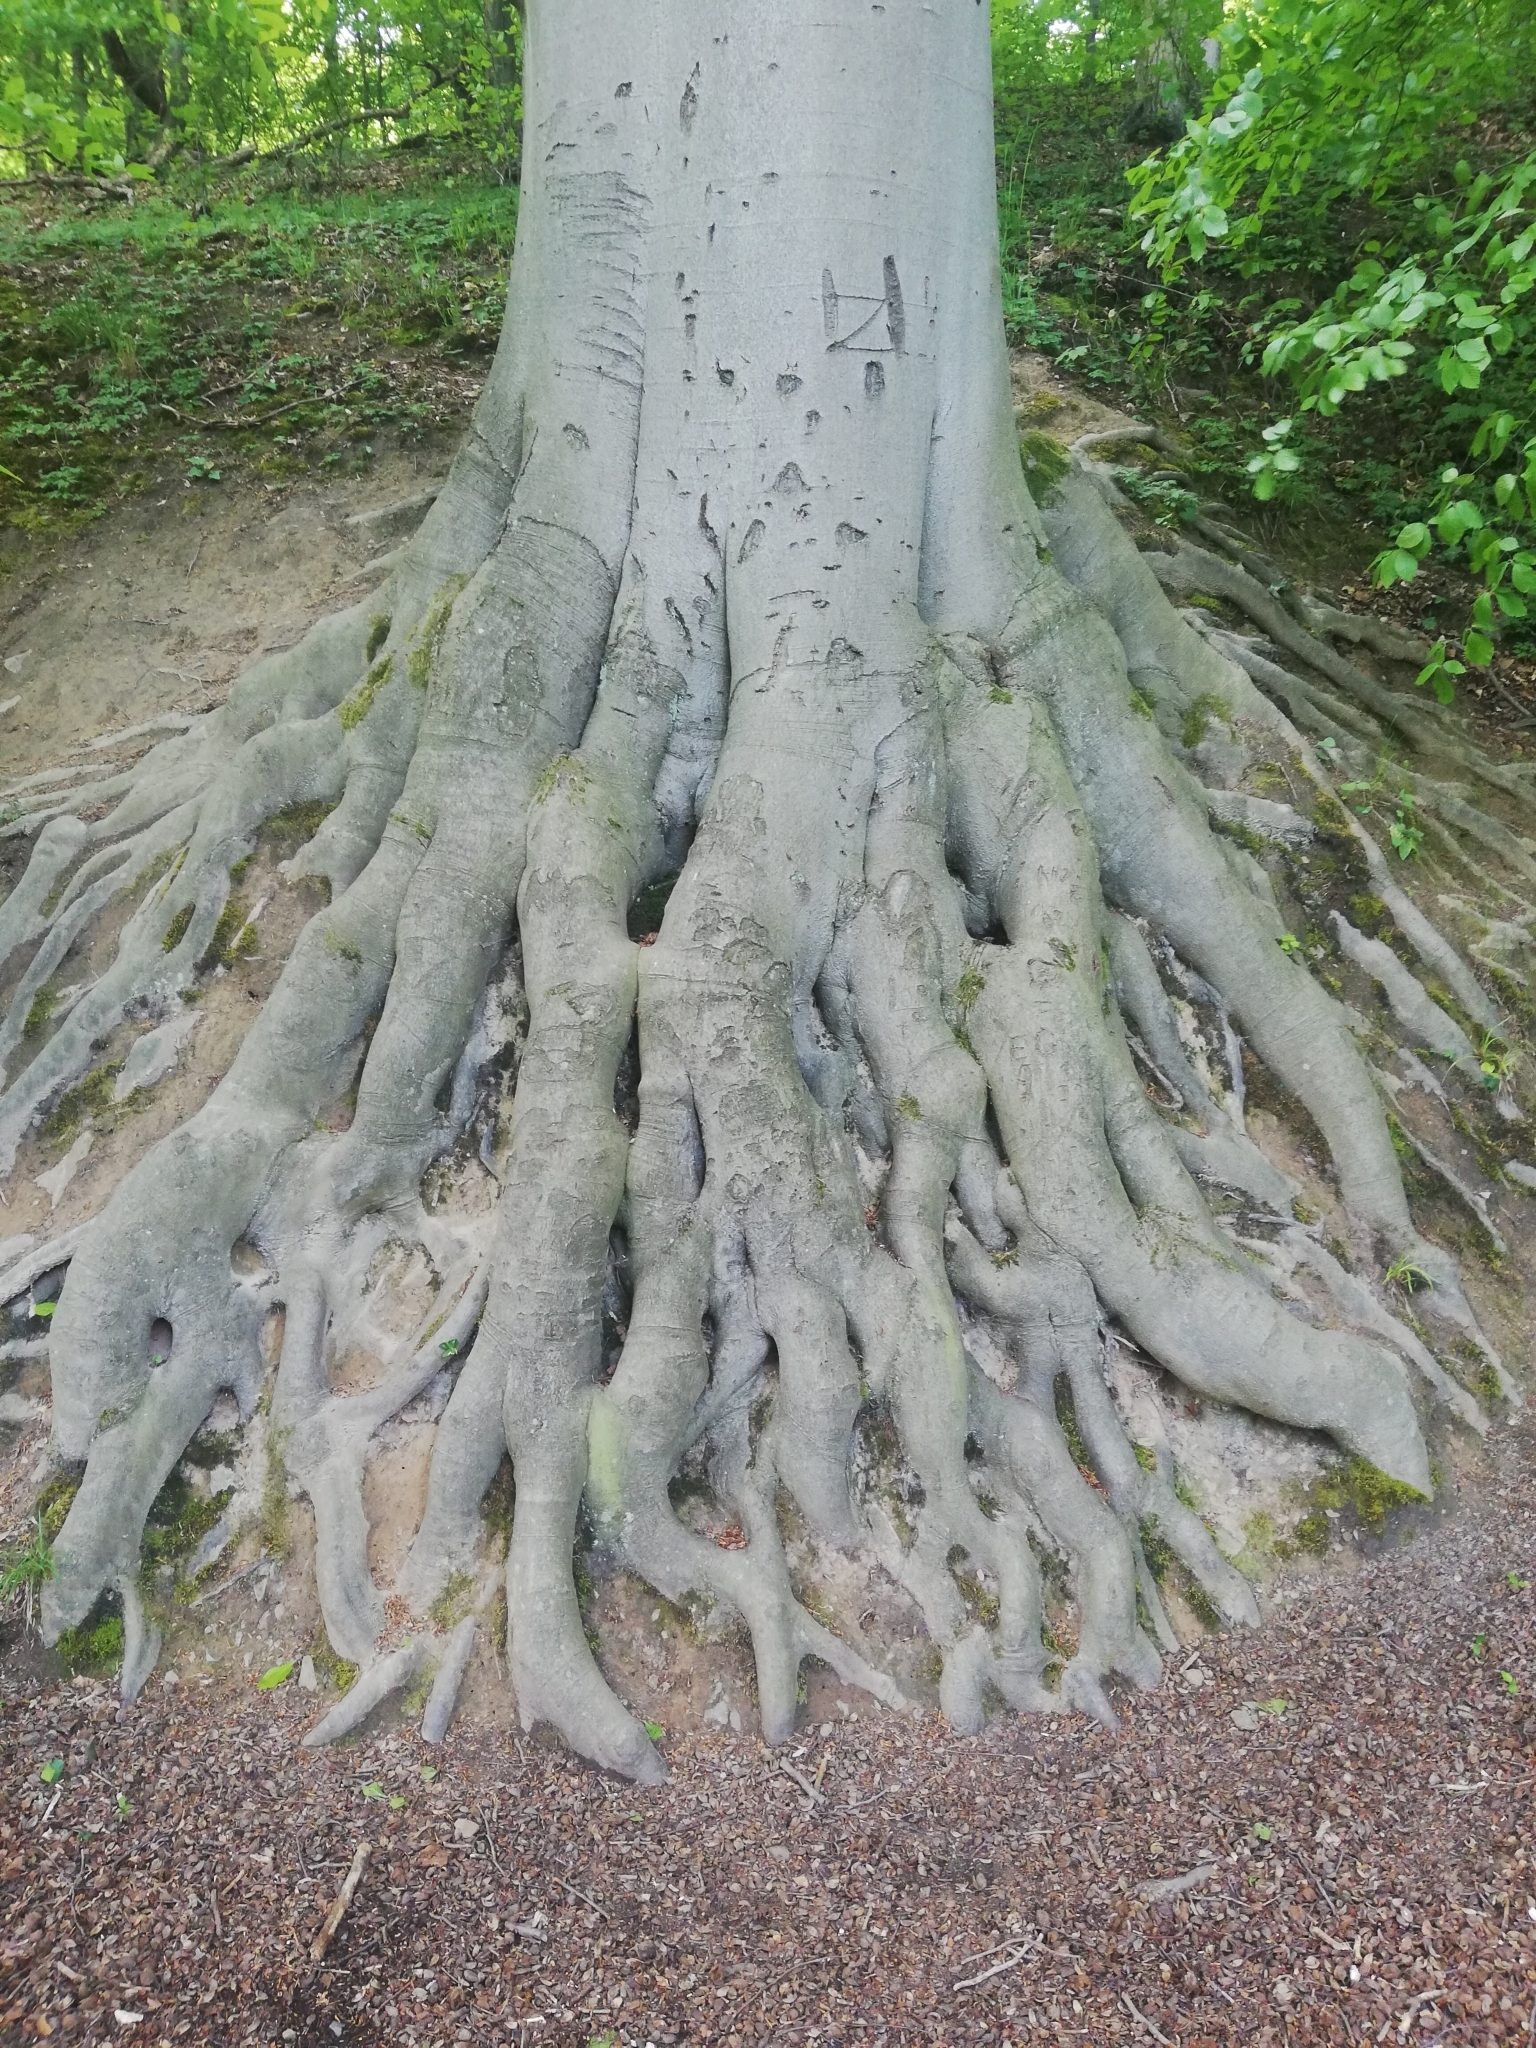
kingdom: Plantae
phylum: Tracheophyta
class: Magnoliopsida
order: Fagales
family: Fagaceae
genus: Fagus
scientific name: Fagus sylvatica
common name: Beech
